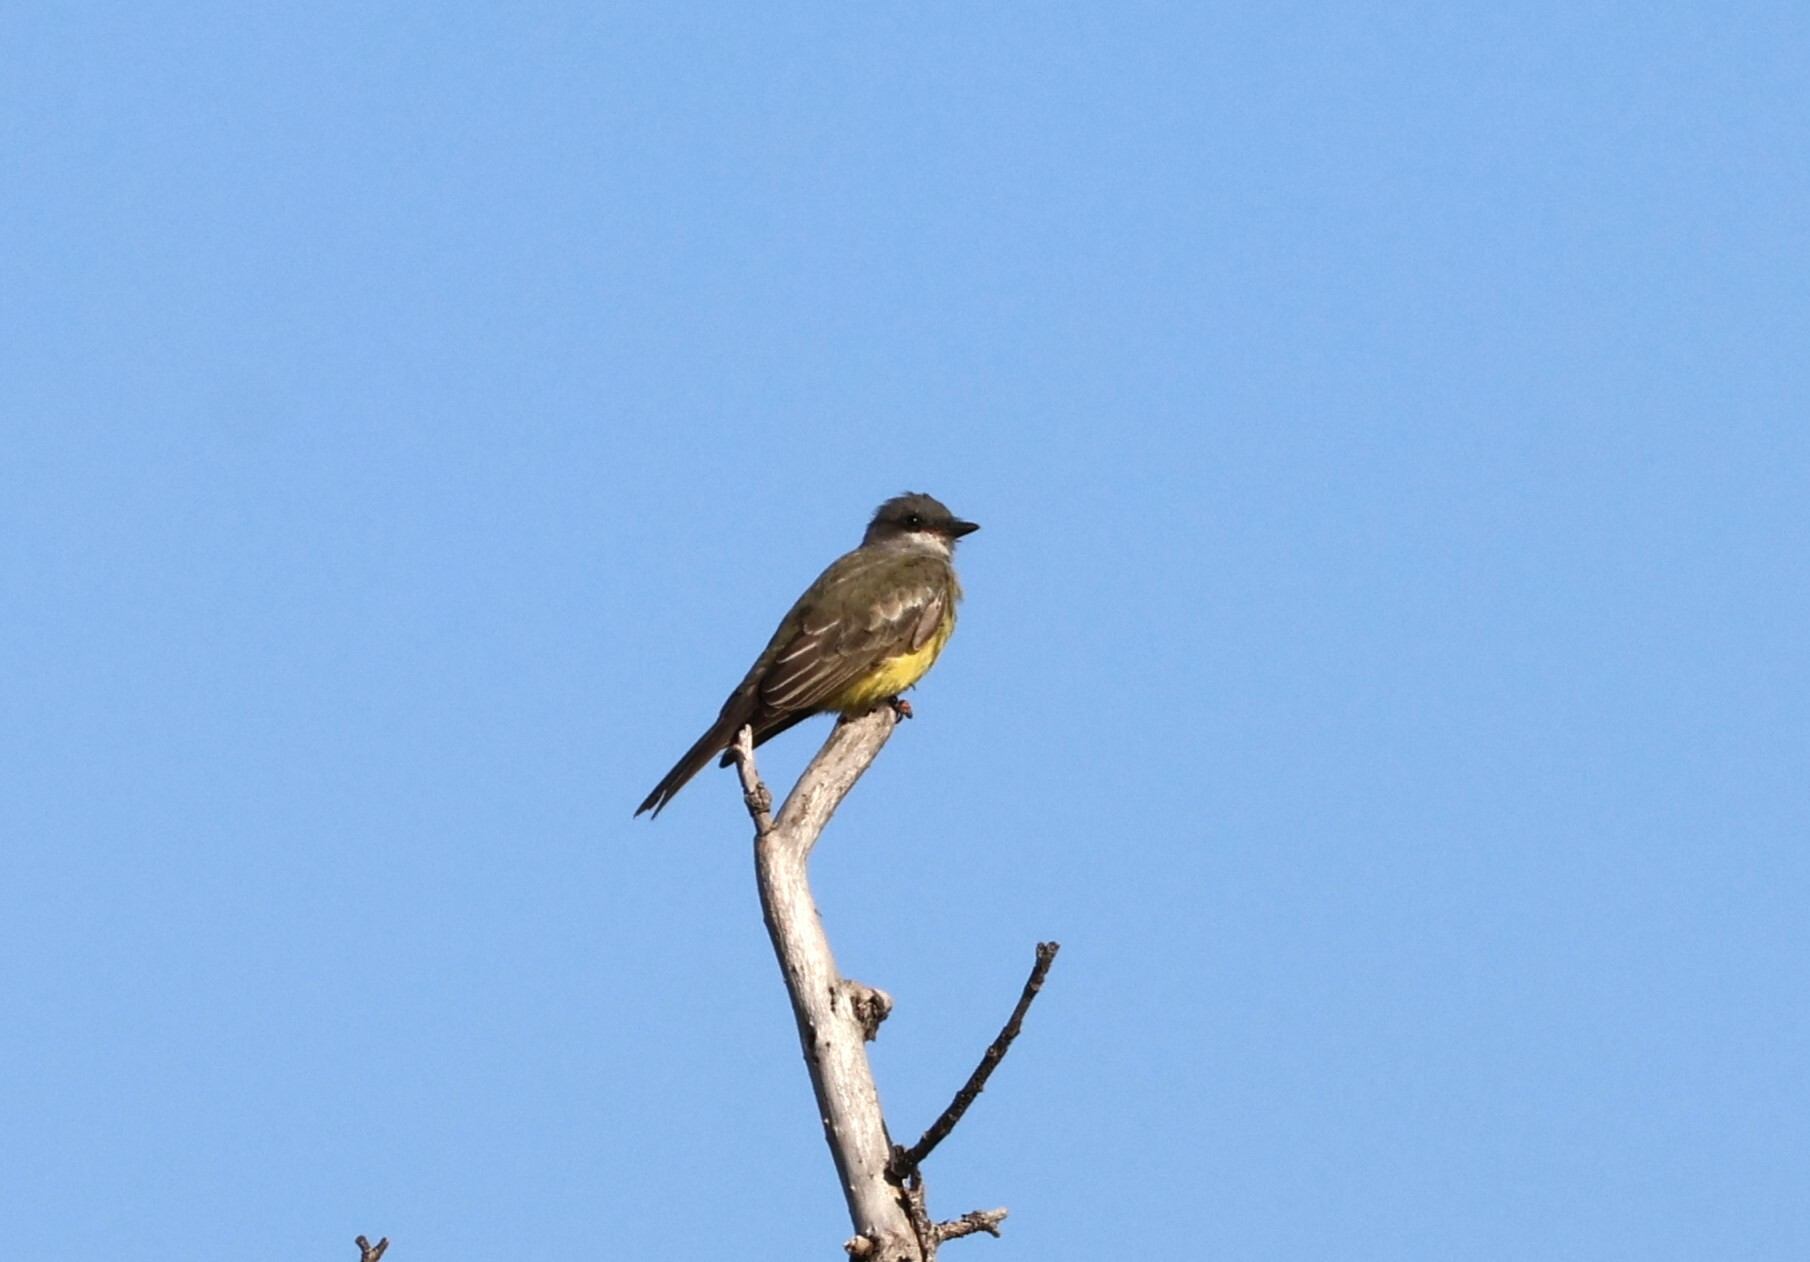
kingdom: Animalia
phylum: Chordata
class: Aves
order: Passeriformes
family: Tyrannidae
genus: Tyrannus
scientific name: Tyrannus vociferans
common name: Cassin's kingbird
